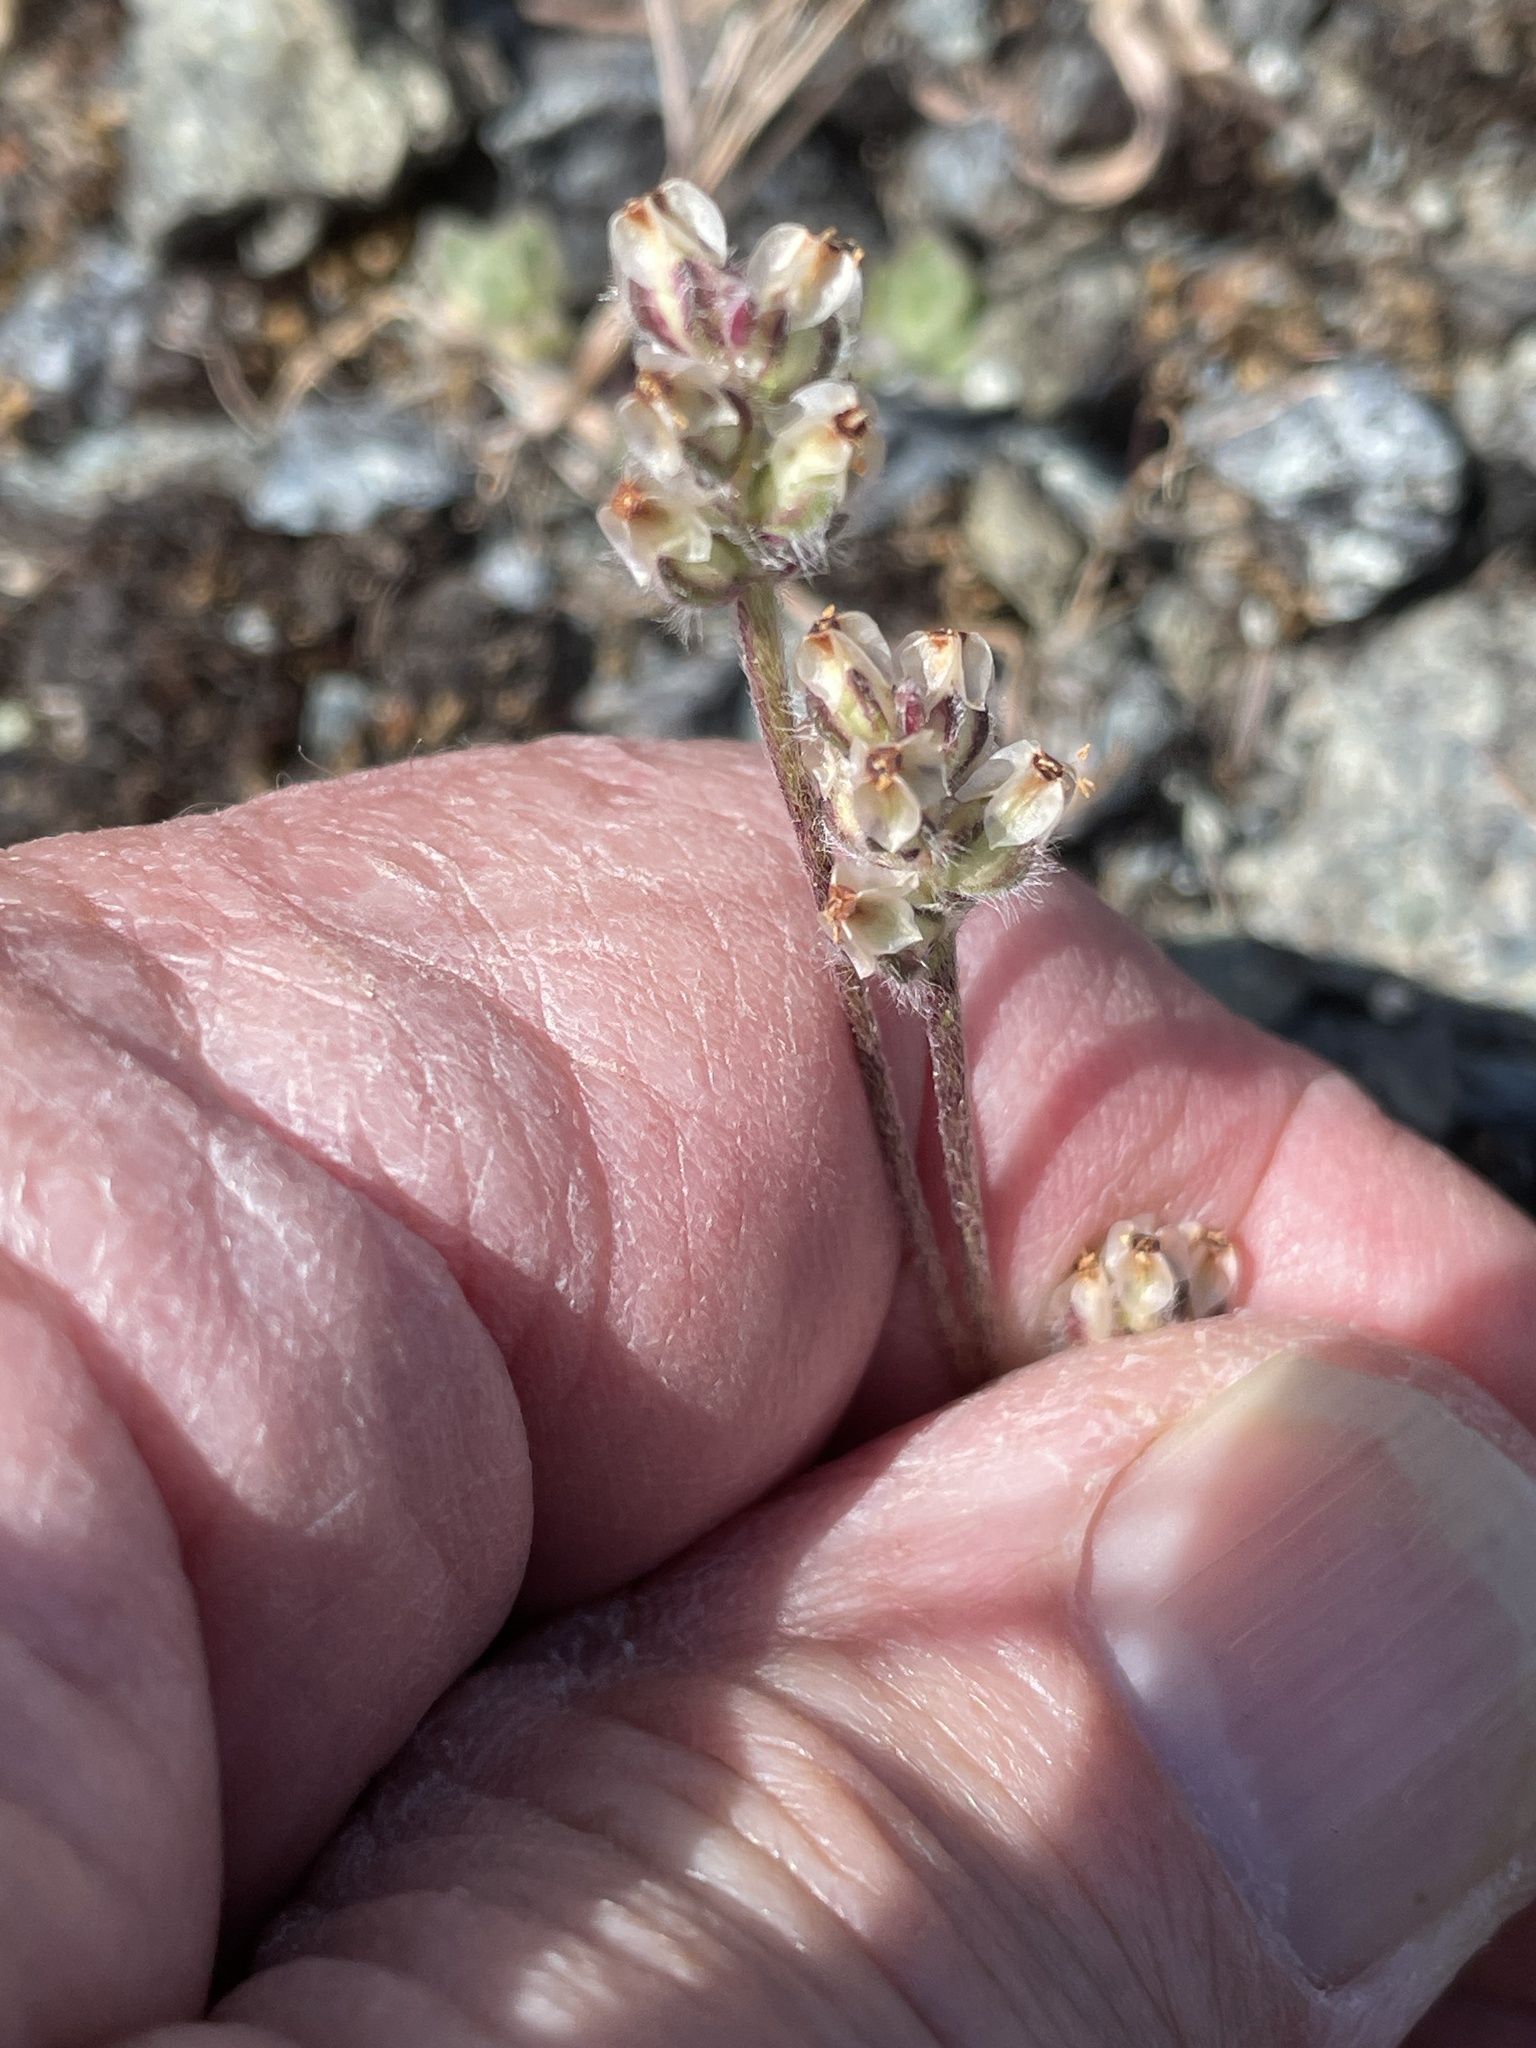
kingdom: Plantae
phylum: Tracheophyta
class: Magnoliopsida
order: Lamiales
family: Plantaginaceae
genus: Plantago
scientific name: Plantago erecta
